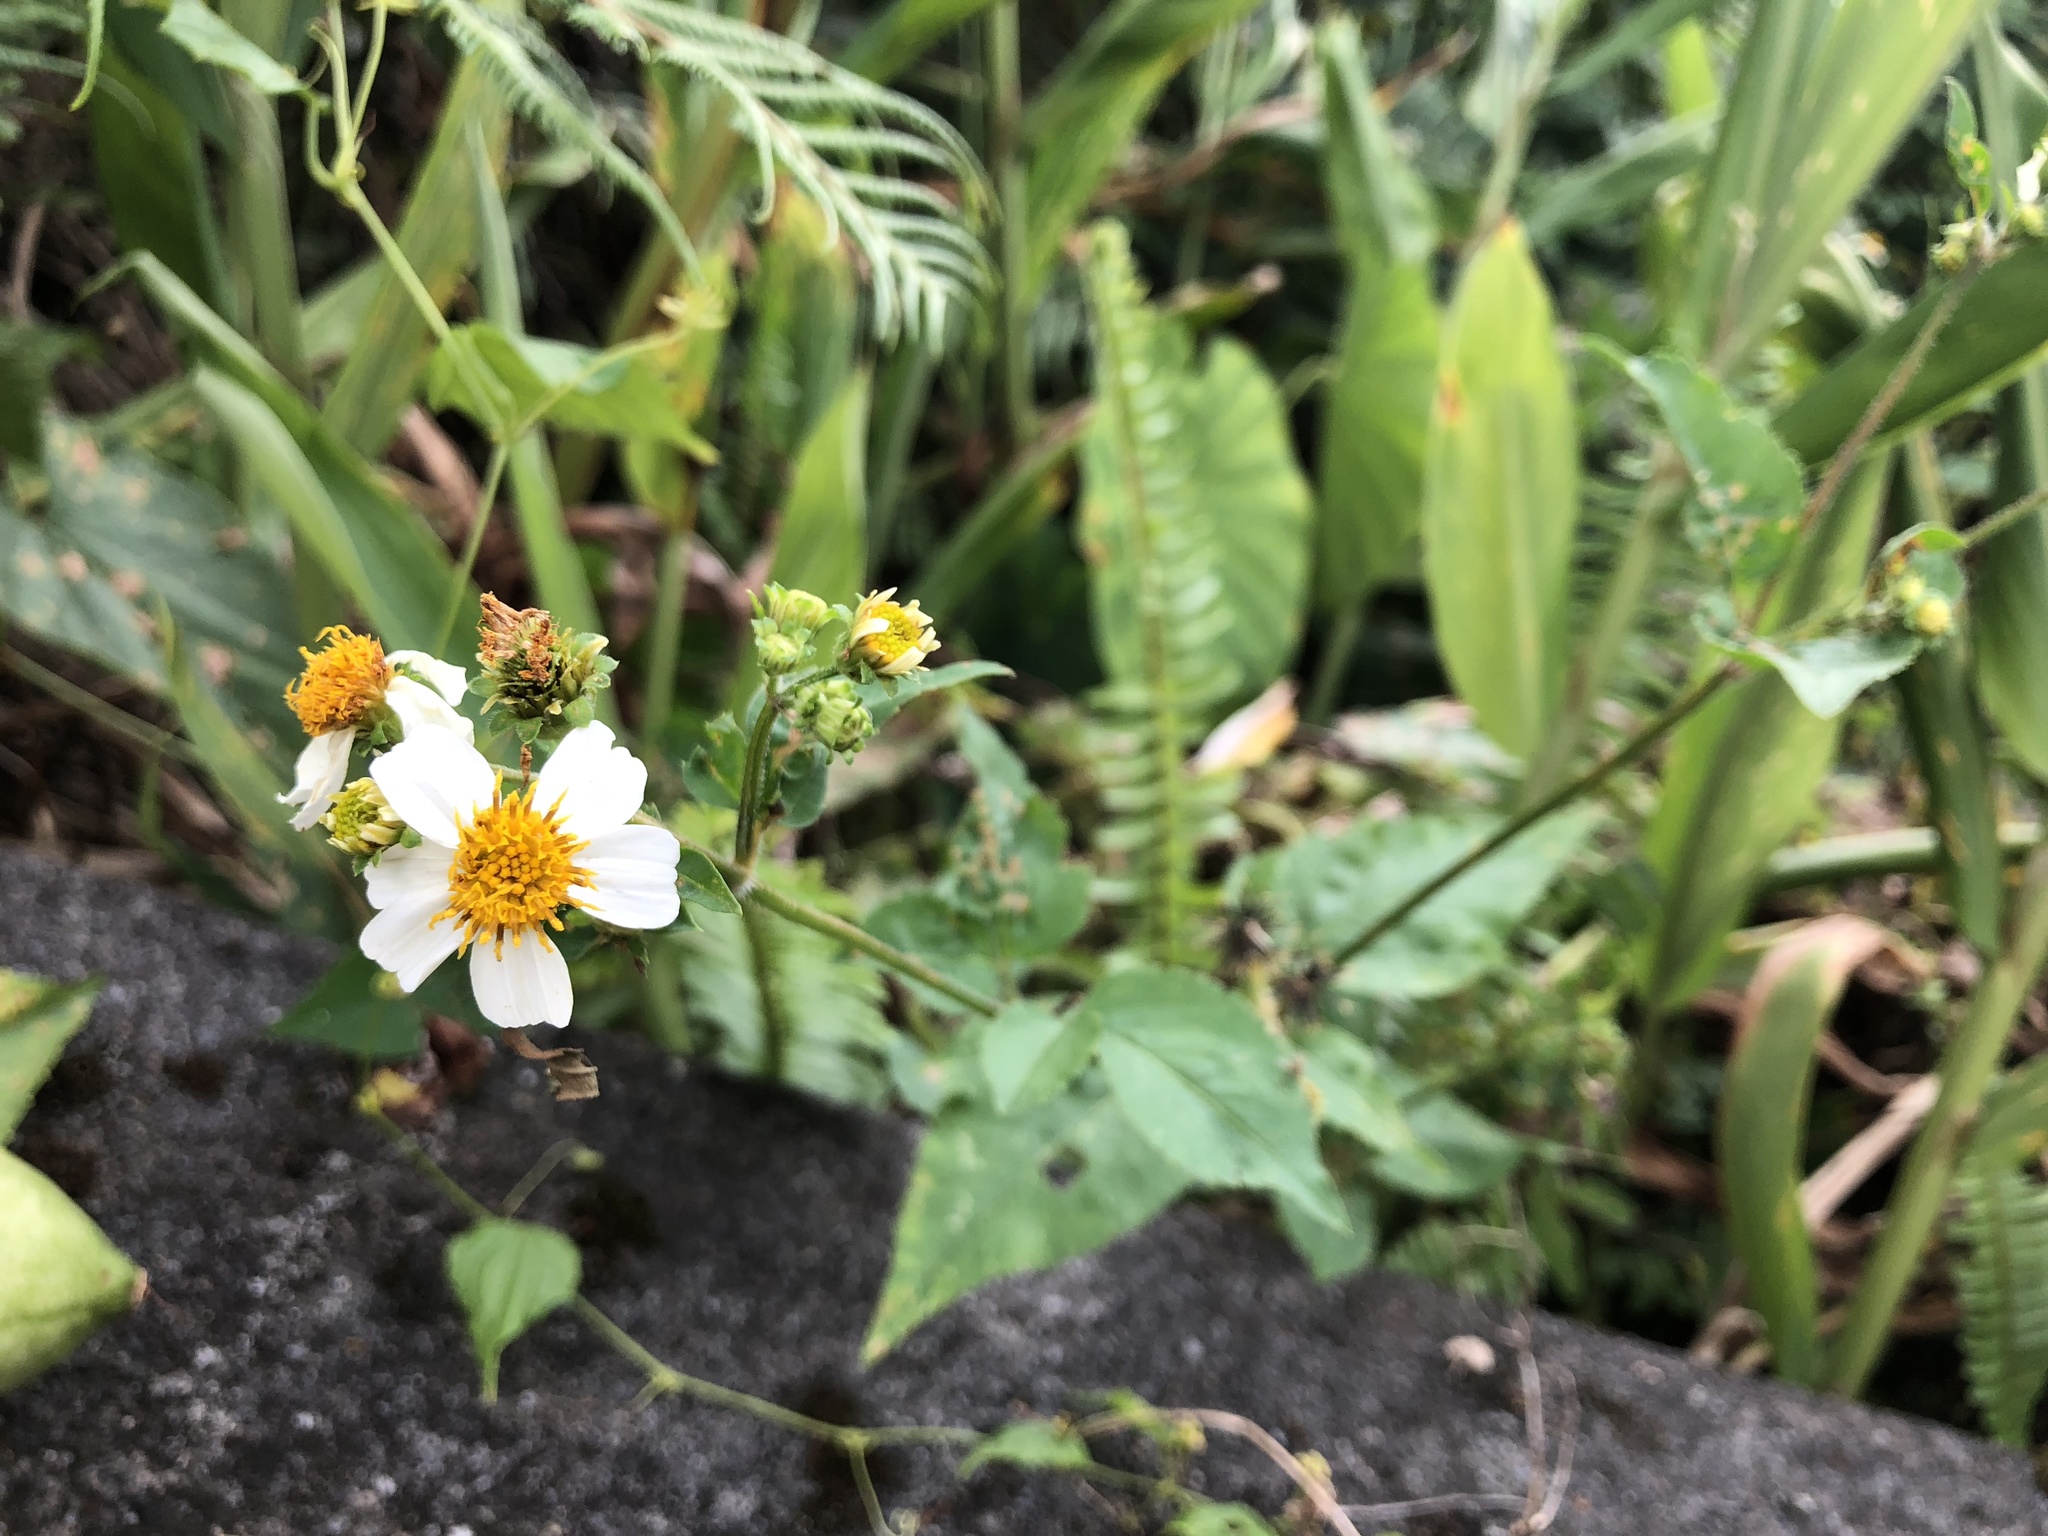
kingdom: Plantae
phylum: Tracheophyta
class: Magnoliopsida
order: Asterales
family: Asteraceae
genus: Bidens
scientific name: Bidens alba
